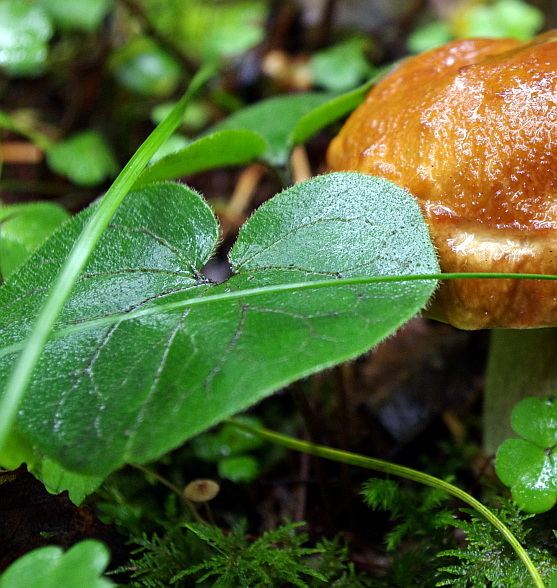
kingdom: Plantae
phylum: Tracheophyta
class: Magnoliopsida
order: Piperales
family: Aristolochiaceae
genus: Asarum
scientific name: Asarum europaeum
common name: Asarabacca
